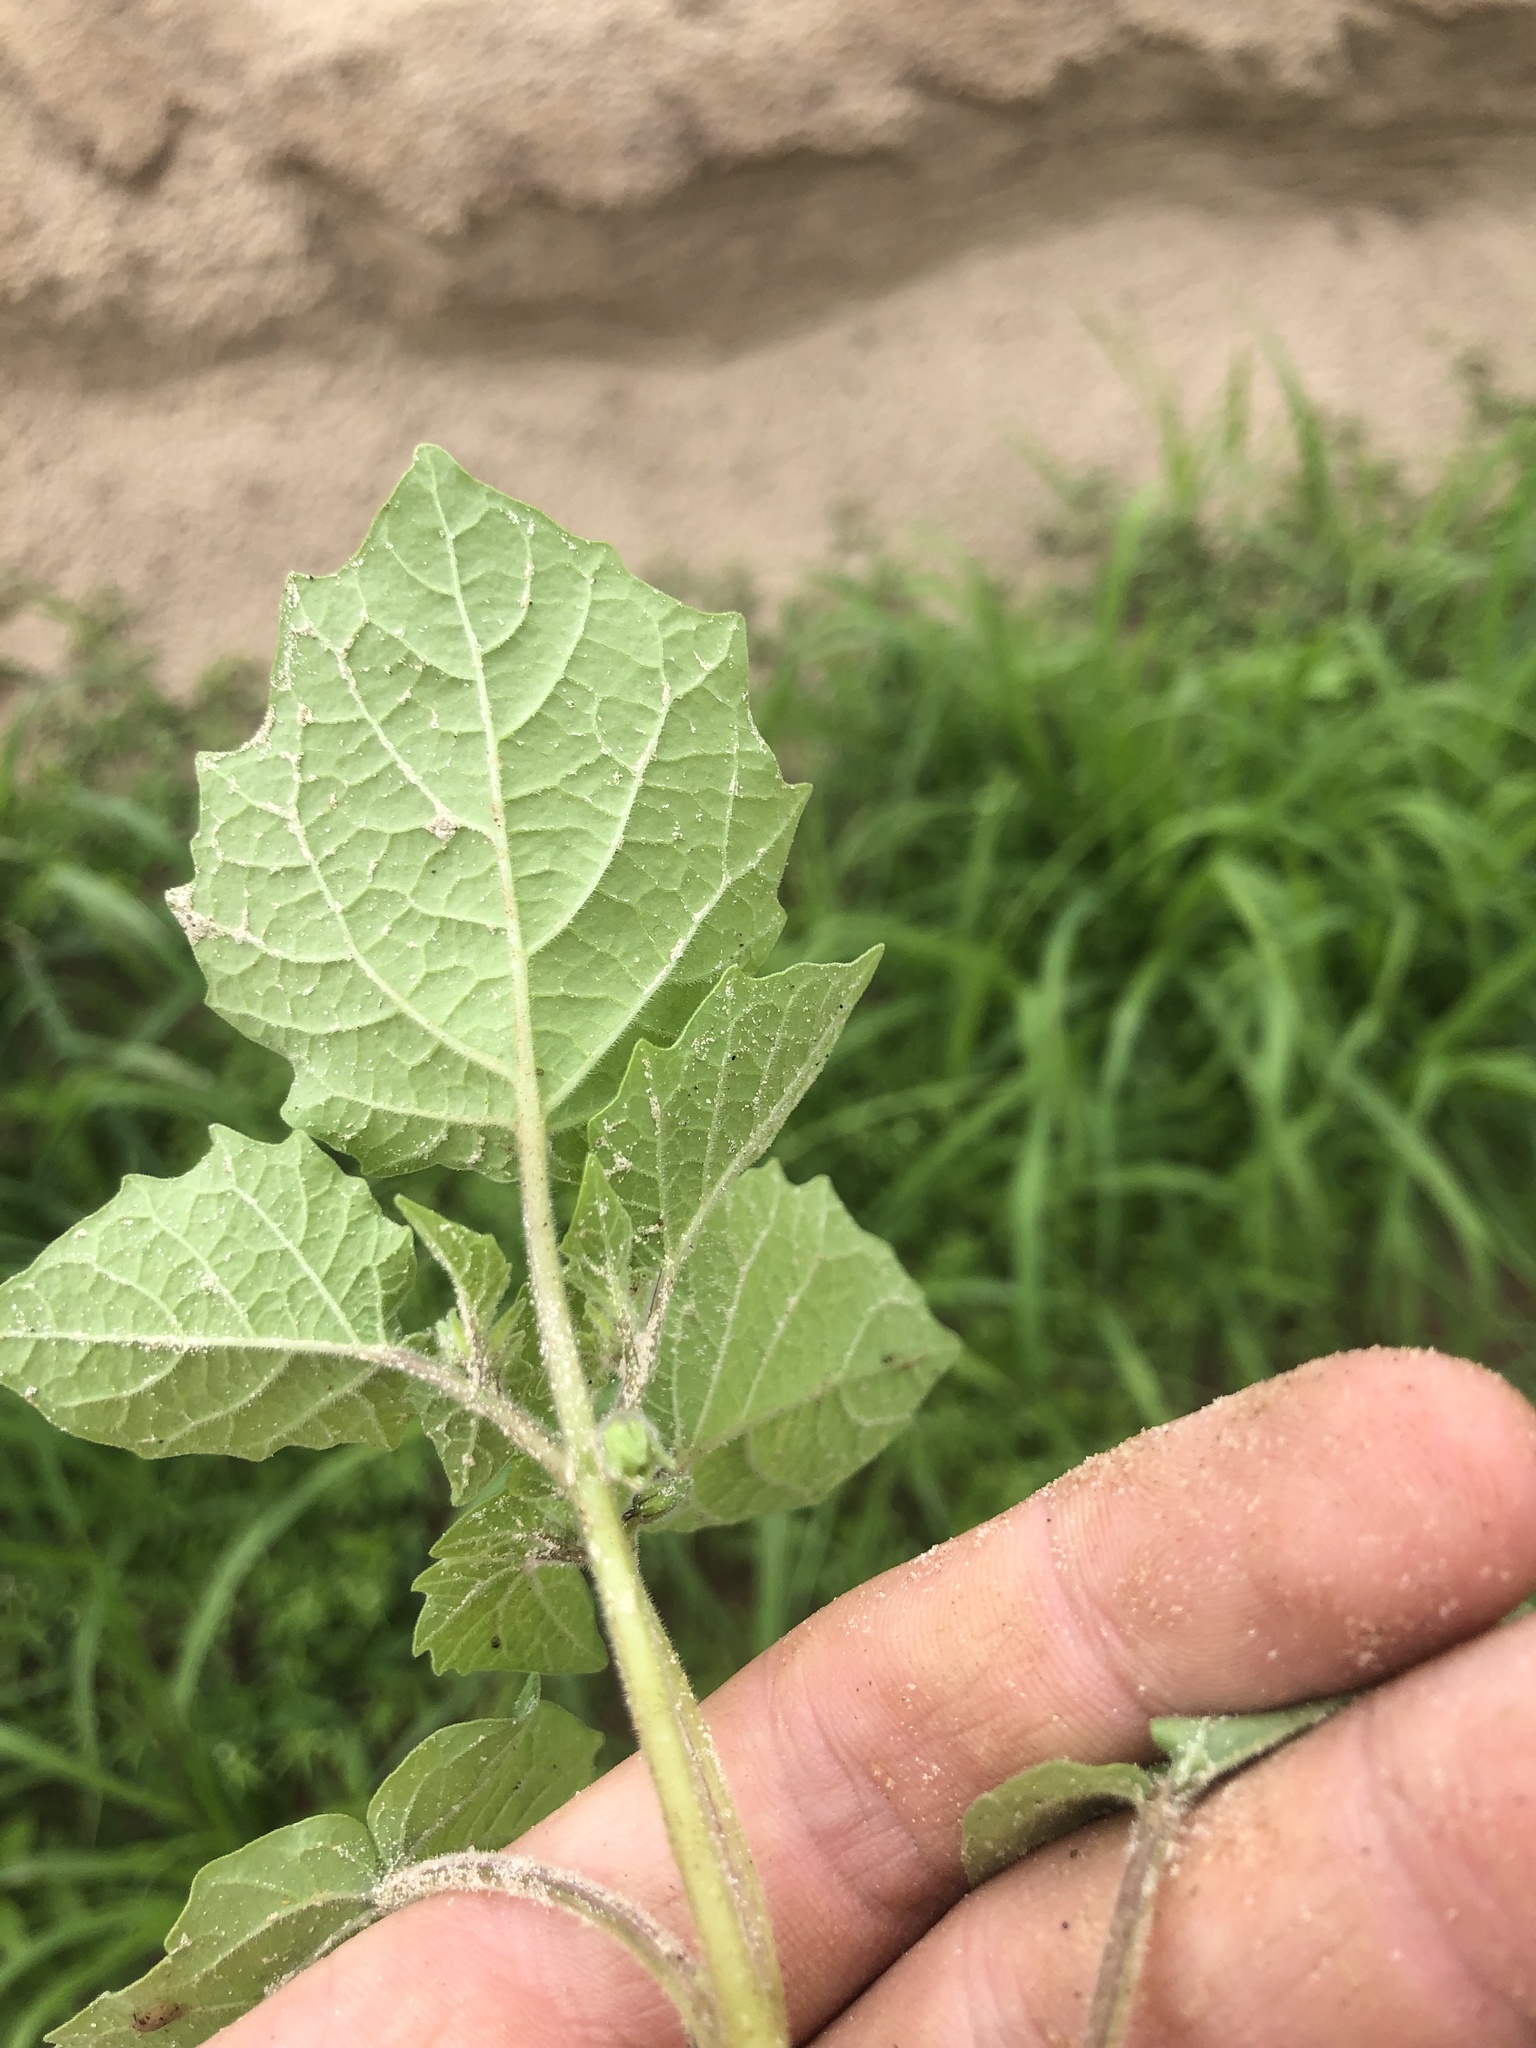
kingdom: Plantae
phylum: Tracheophyta
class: Magnoliopsida
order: Solanales
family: Solanaceae
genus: Physalis
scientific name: Physalis pubescens
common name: Downy ground-cherry
